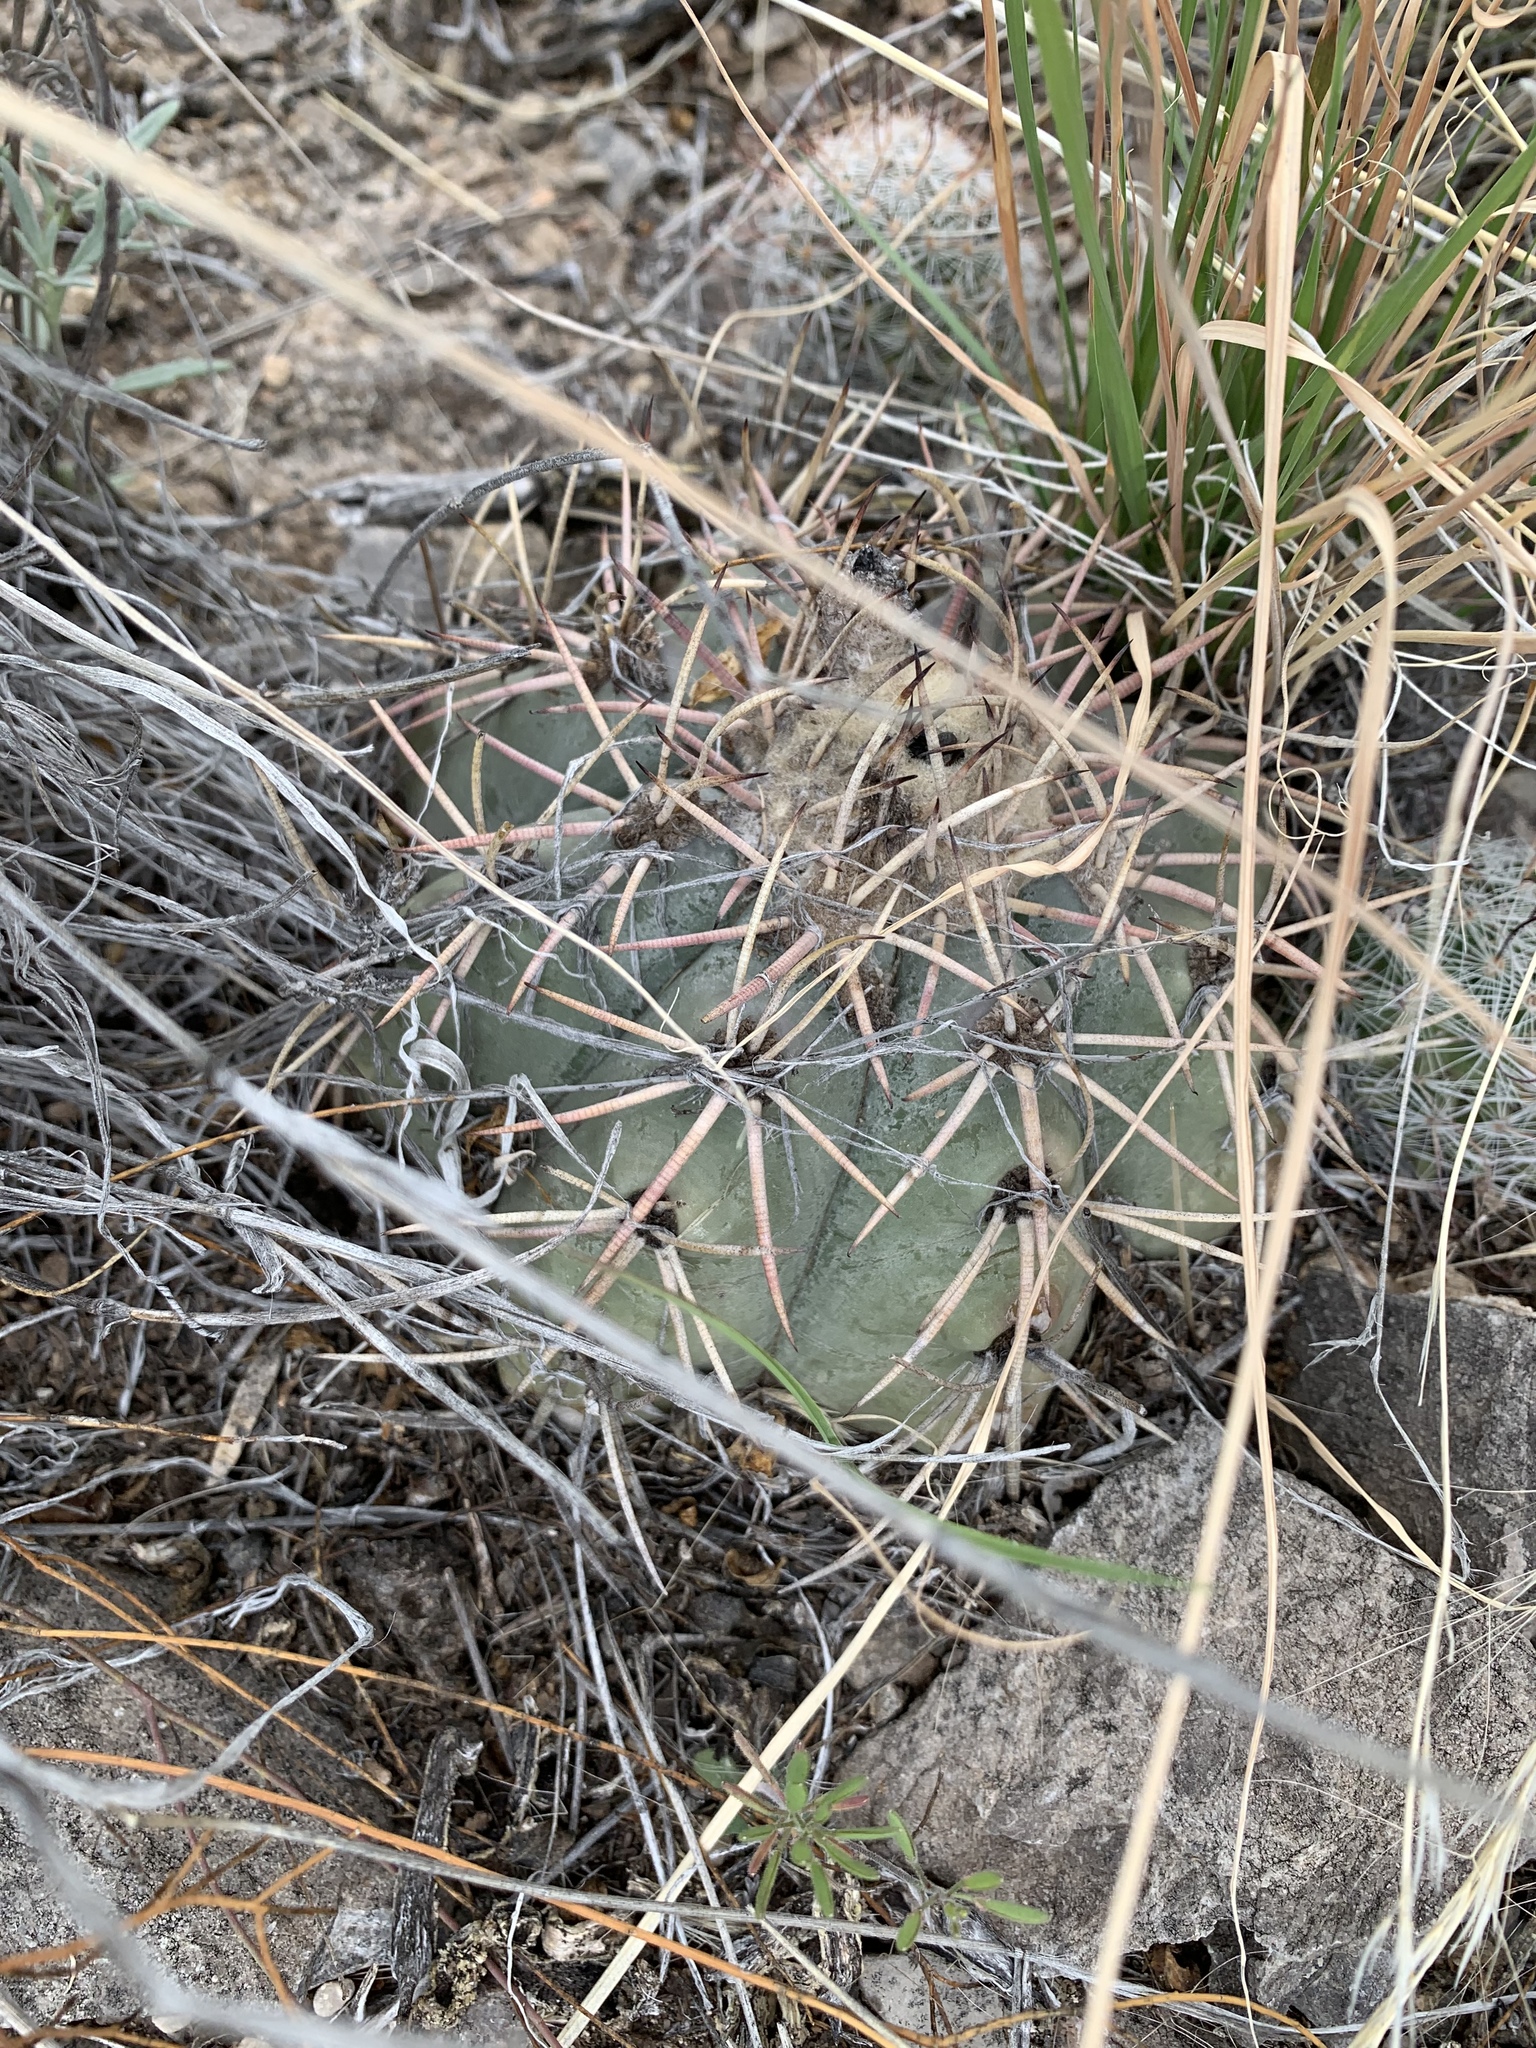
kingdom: Plantae
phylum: Tracheophyta
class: Magnoliopsida
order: Caryophyllales
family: Cactaceae
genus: Echinocactus
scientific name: Echinocactus horizonthalonius
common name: Devilshead
